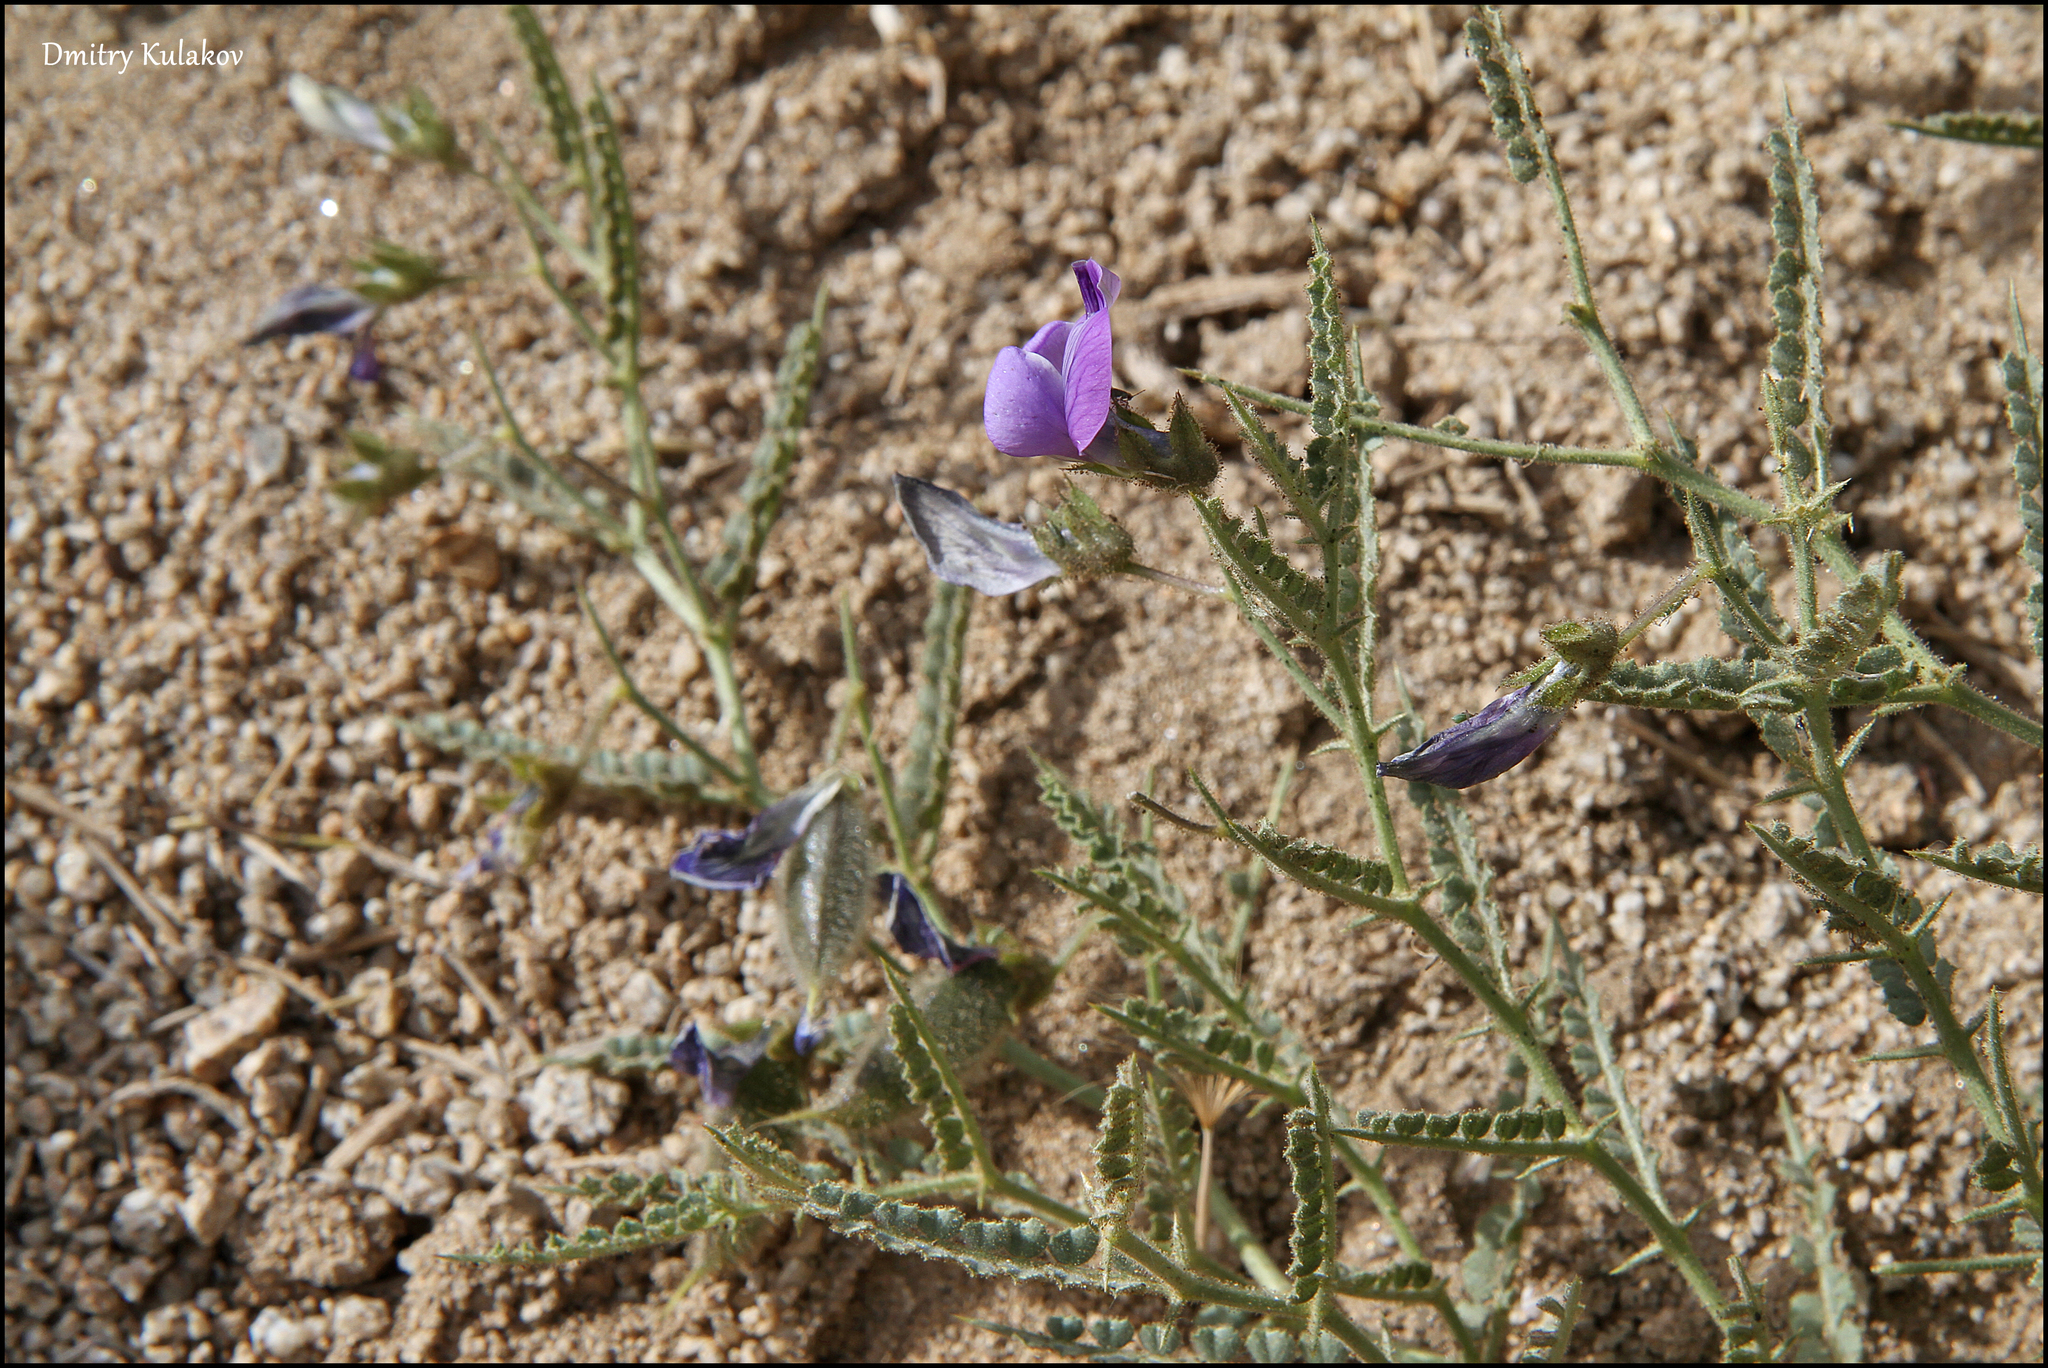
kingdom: Plantae
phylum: Tracheophyta
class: Magnoliopsida
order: Fabales
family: Fabaceae
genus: Cicer
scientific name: Cicer acanthophyllum
